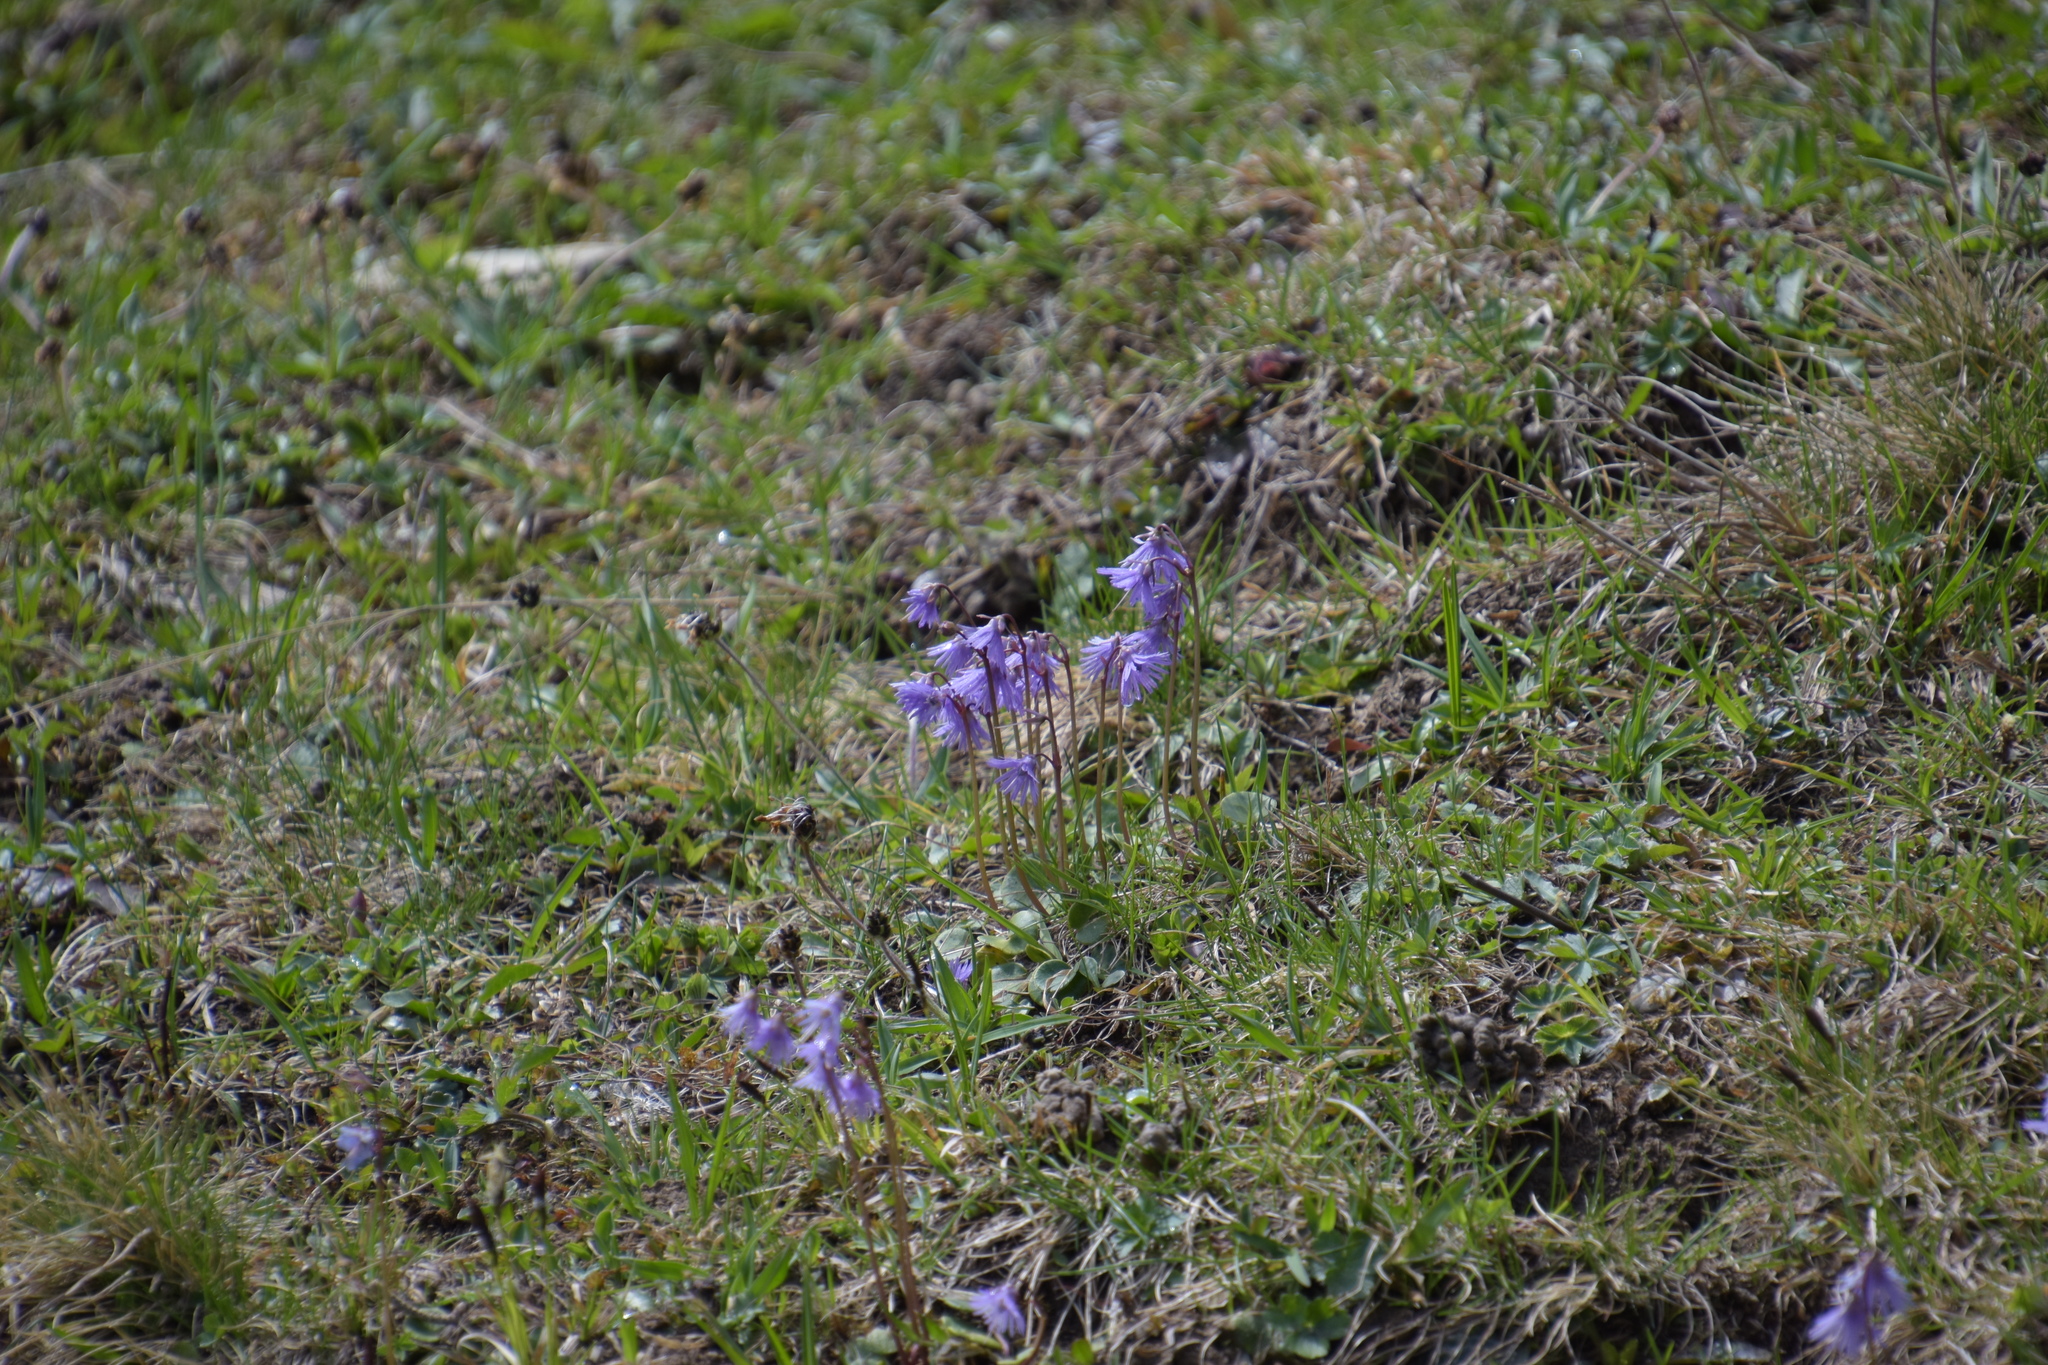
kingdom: Plantae
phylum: Tracheophyta
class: Magnoliopsida
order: Ericales
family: Primulaceae
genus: Soldanella
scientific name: Soldanella alpina
